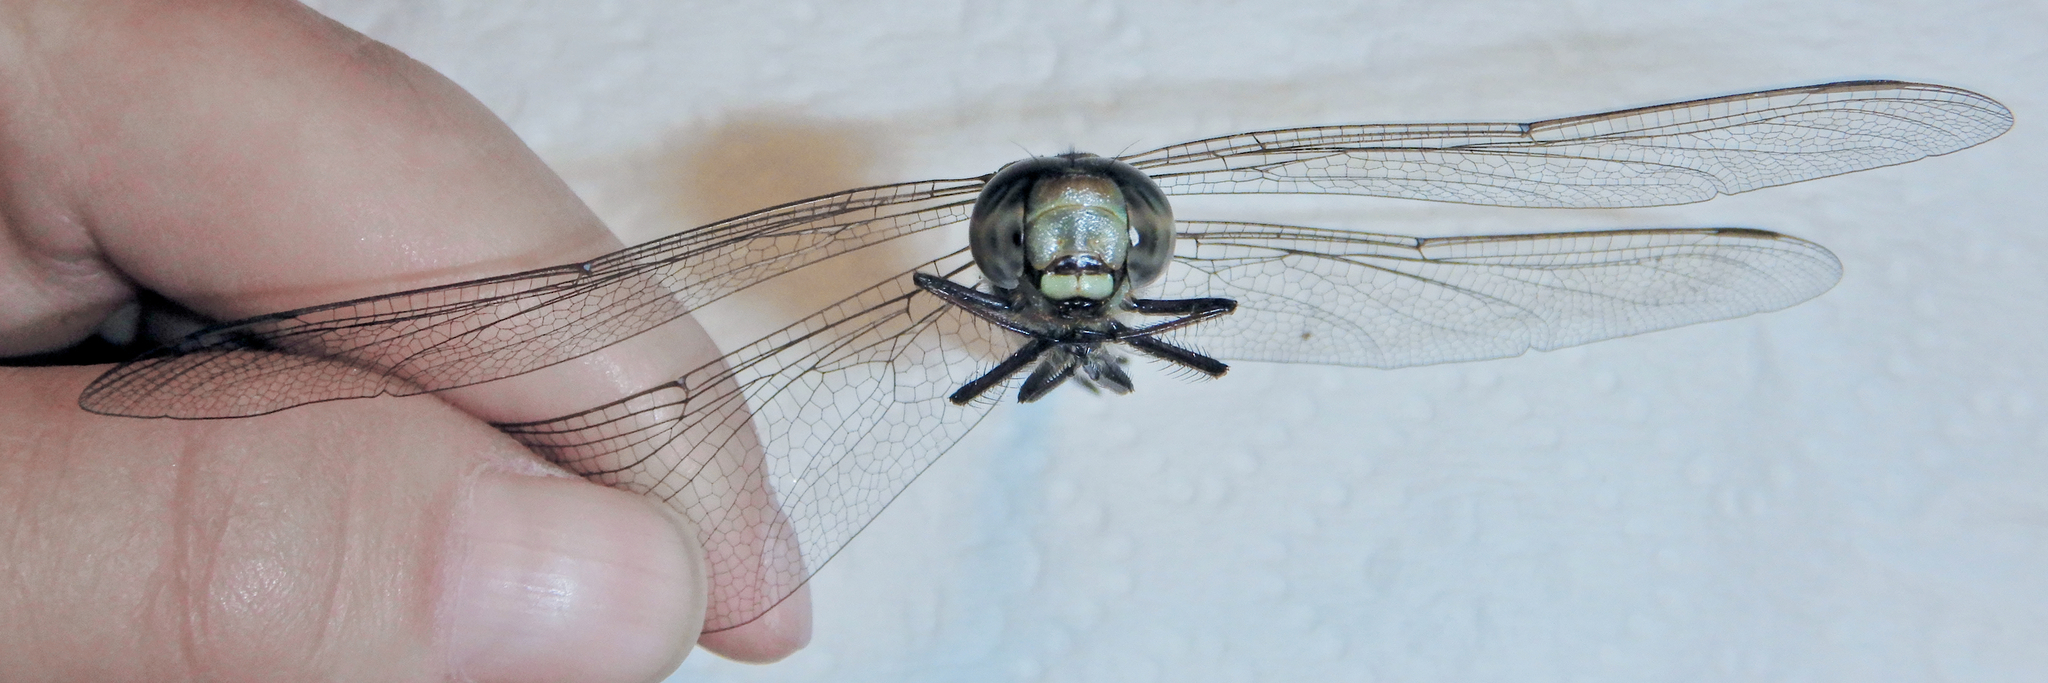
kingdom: Animalia
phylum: Arthropoda
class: Insecta
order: Odonata
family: Aeshnidae
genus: Aeshna
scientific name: Aeshna canadensis
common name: Canada darner
